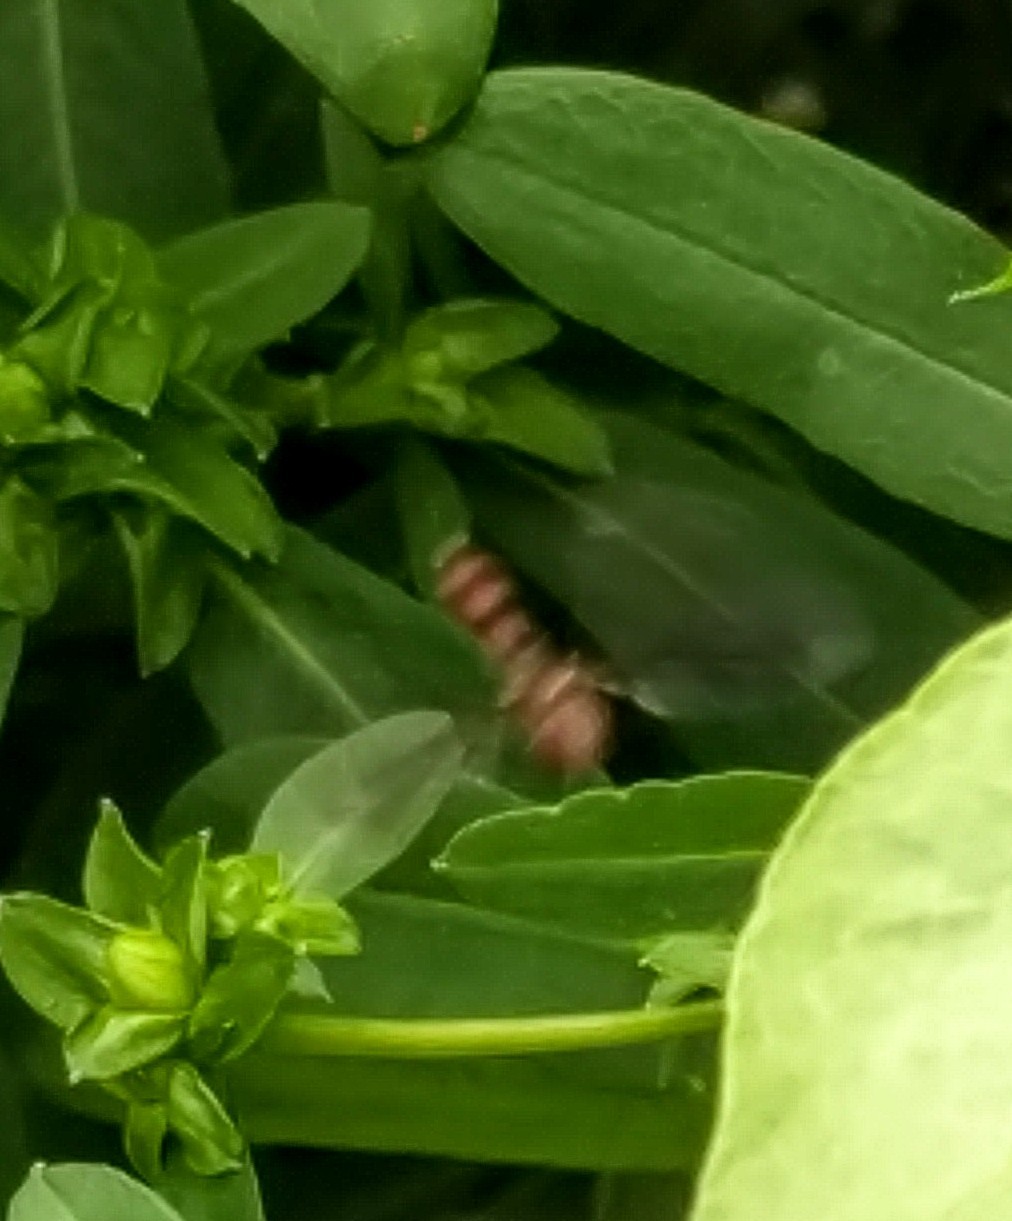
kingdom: Animalia
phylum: Arthropoda
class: Insecta
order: Diptera
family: Syrphidae
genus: Ocyptamus
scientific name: Ocyptamus fuscipennis
